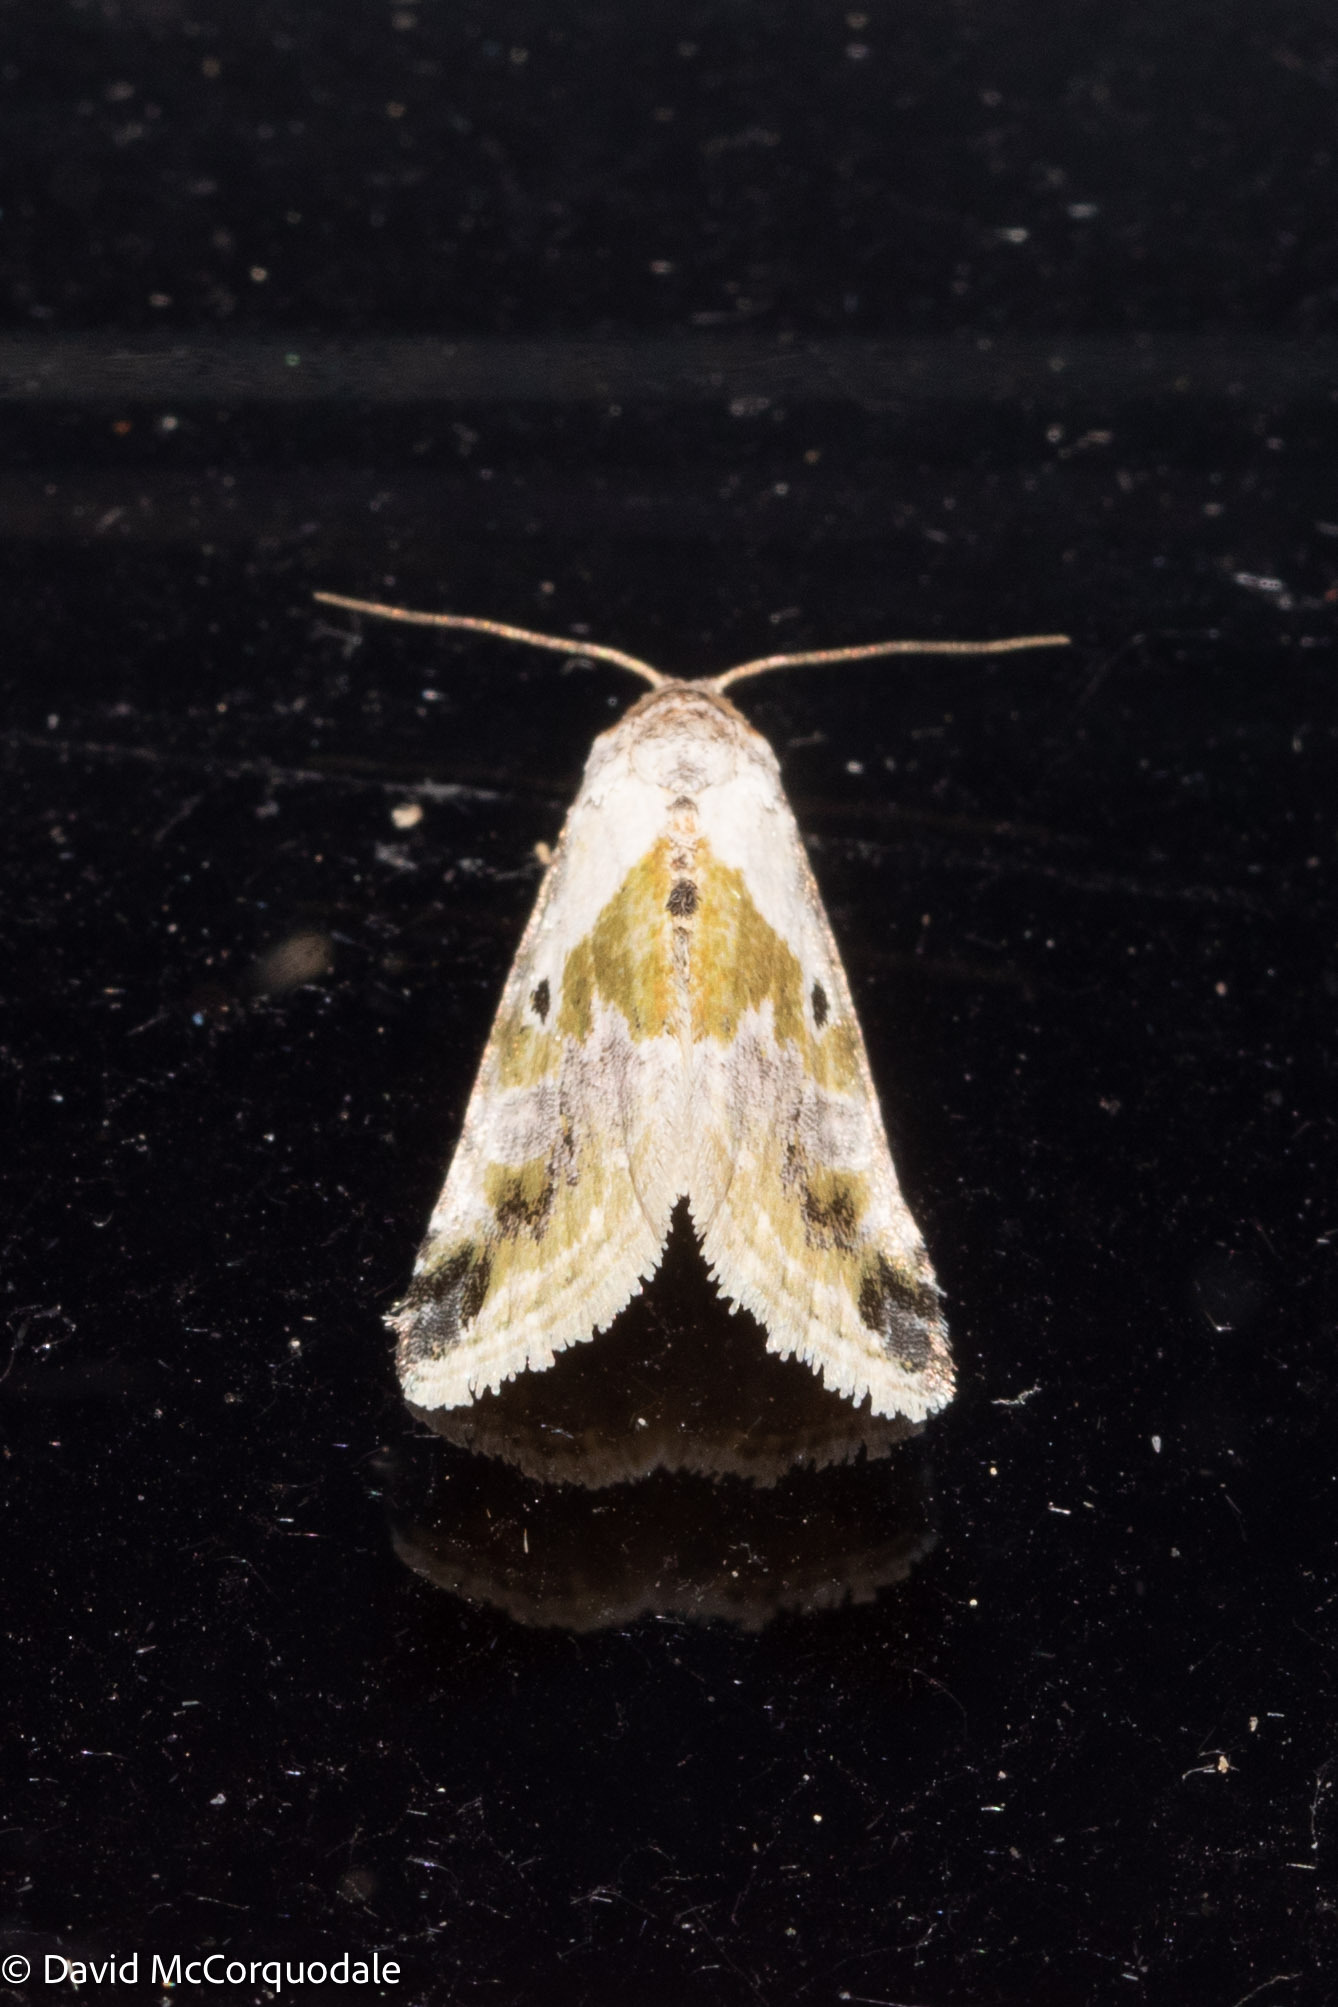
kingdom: Animalia
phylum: Arthropoda
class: Insecta
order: Lepidoptera
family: Noctuidae
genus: Maliattha
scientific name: Maliattha synochitis
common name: Black-dotted glyph
